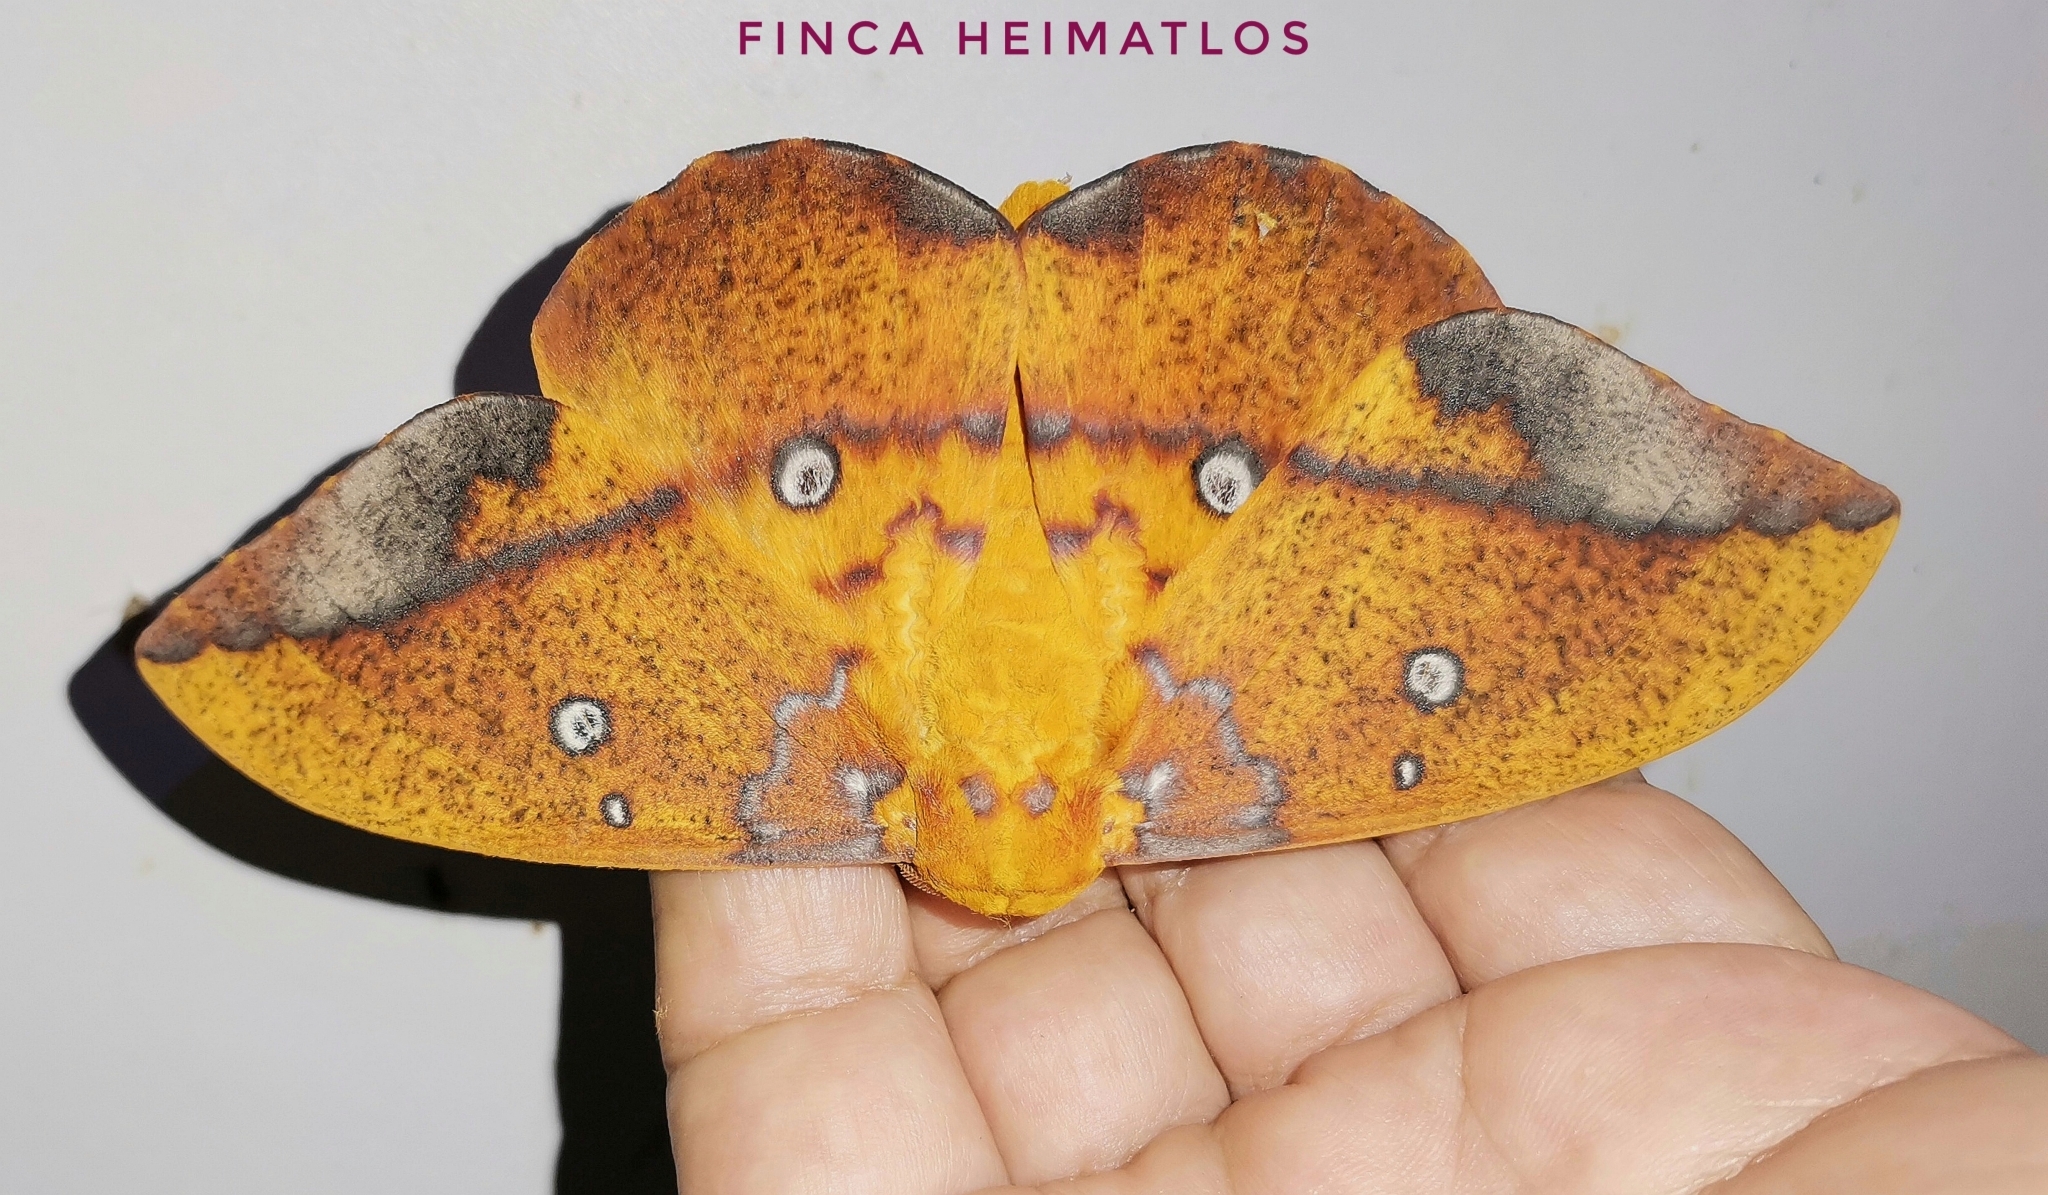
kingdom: Animalia
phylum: Arthropoda
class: Insecta
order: Lepidoptera
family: Saturniidae
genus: Eacles
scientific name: Eacles penelope
